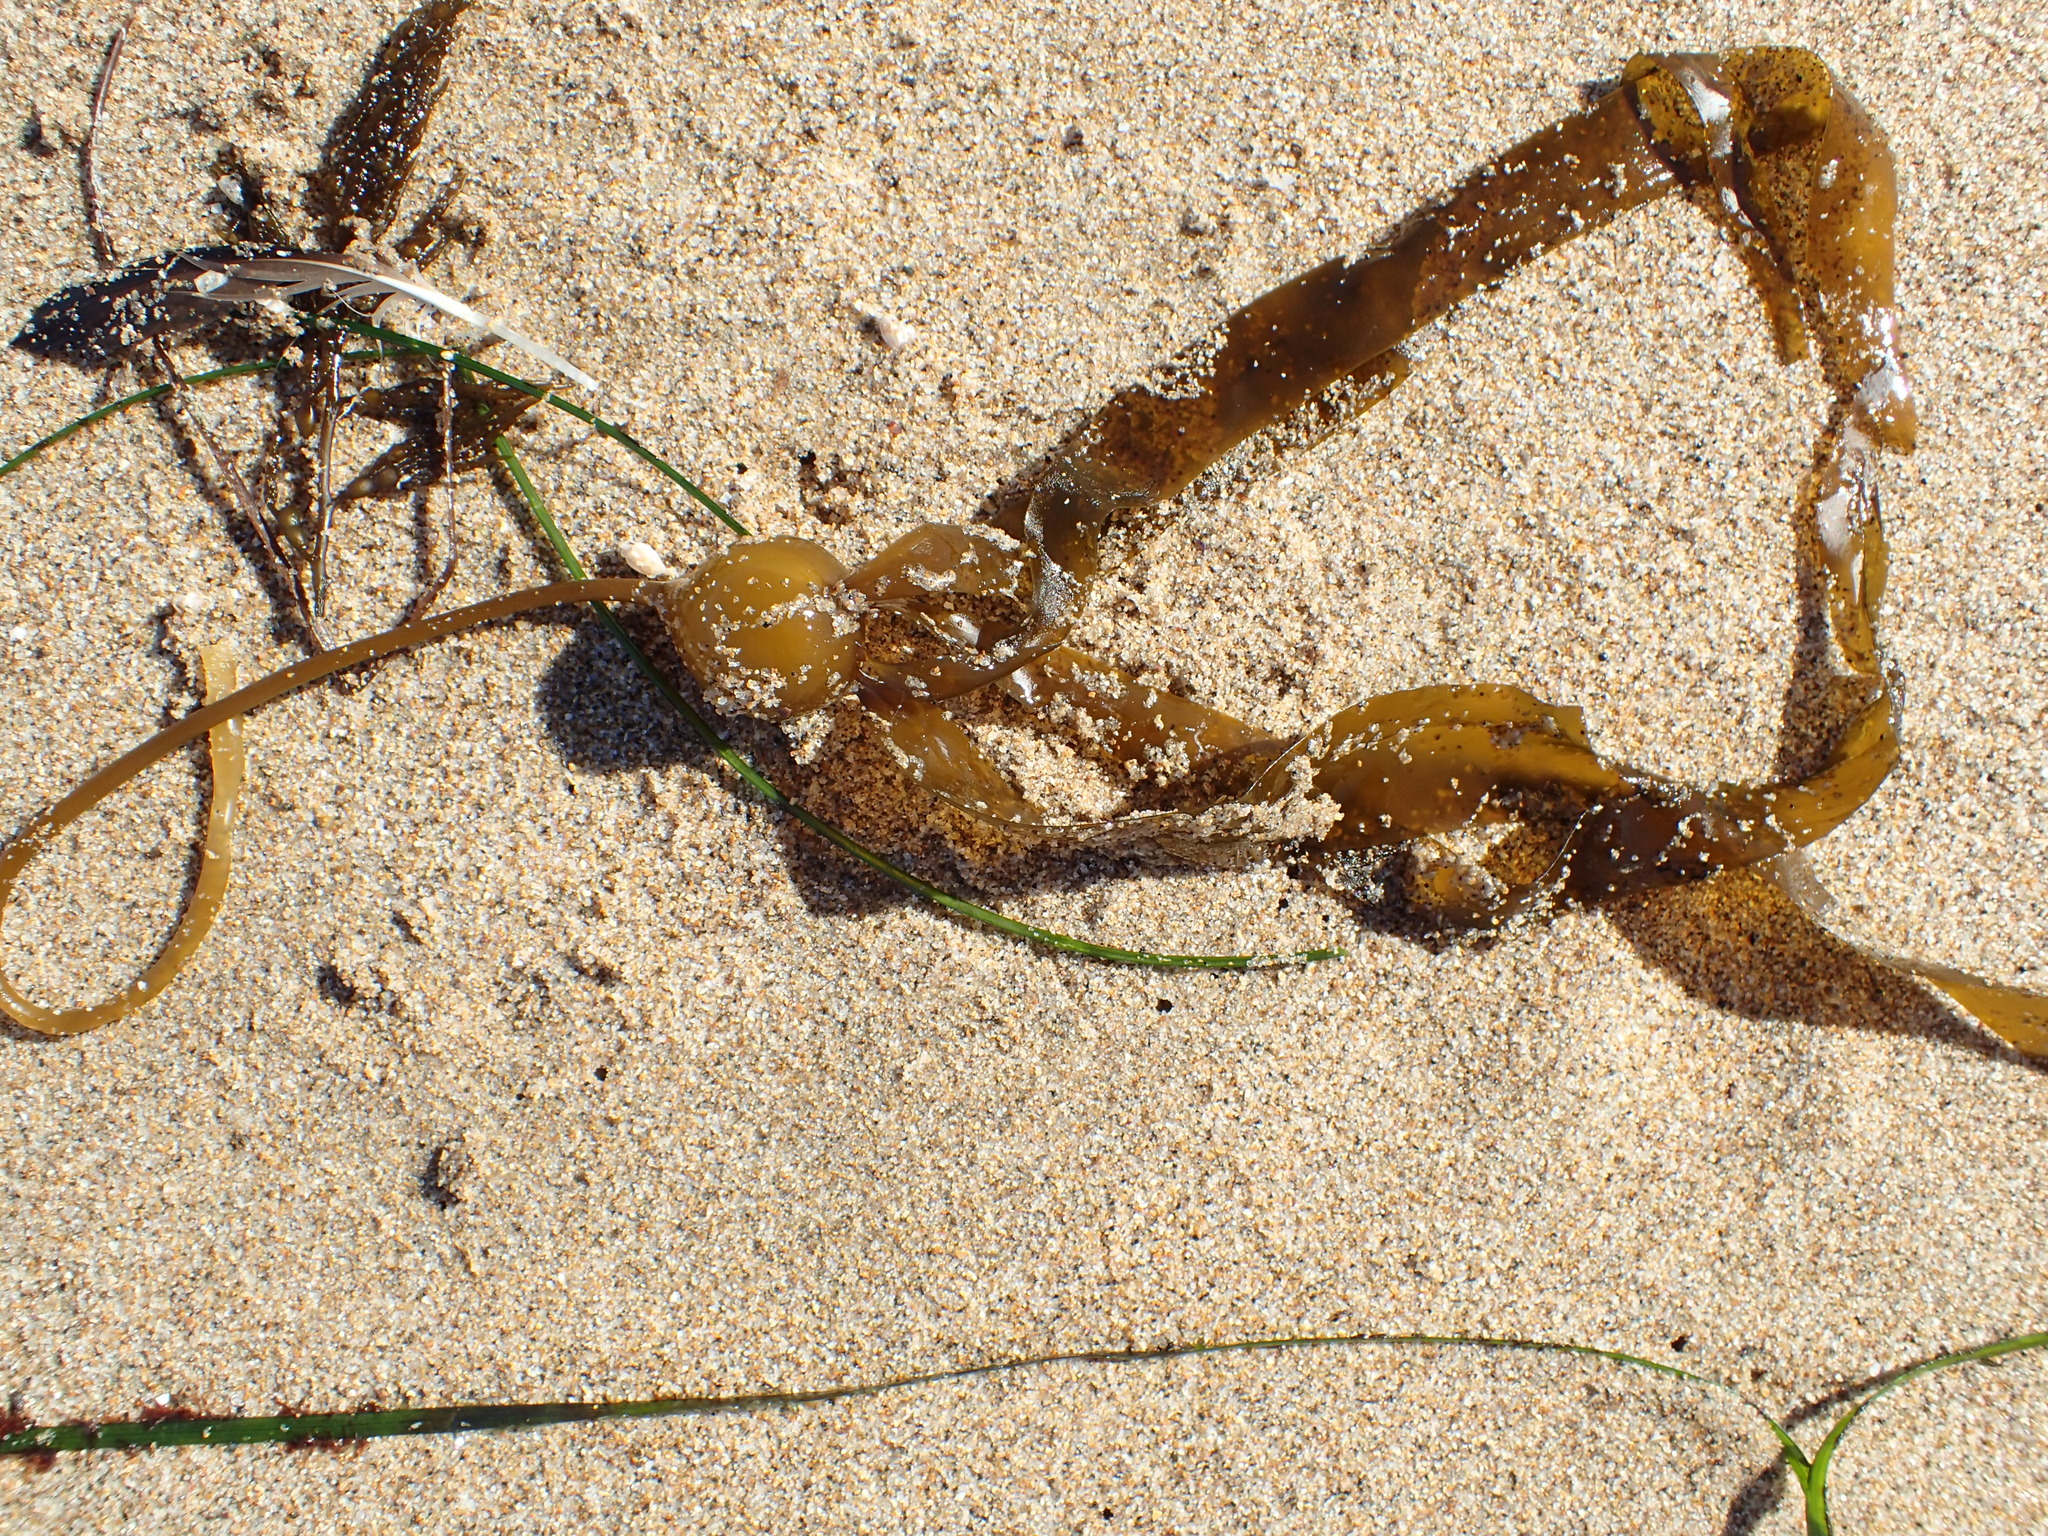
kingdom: Chromista
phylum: Ochrophyta
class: Phaeophyceae
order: Laminariales
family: Laminariaceae
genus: Nereocystis
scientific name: Nereocystis luetkeana
